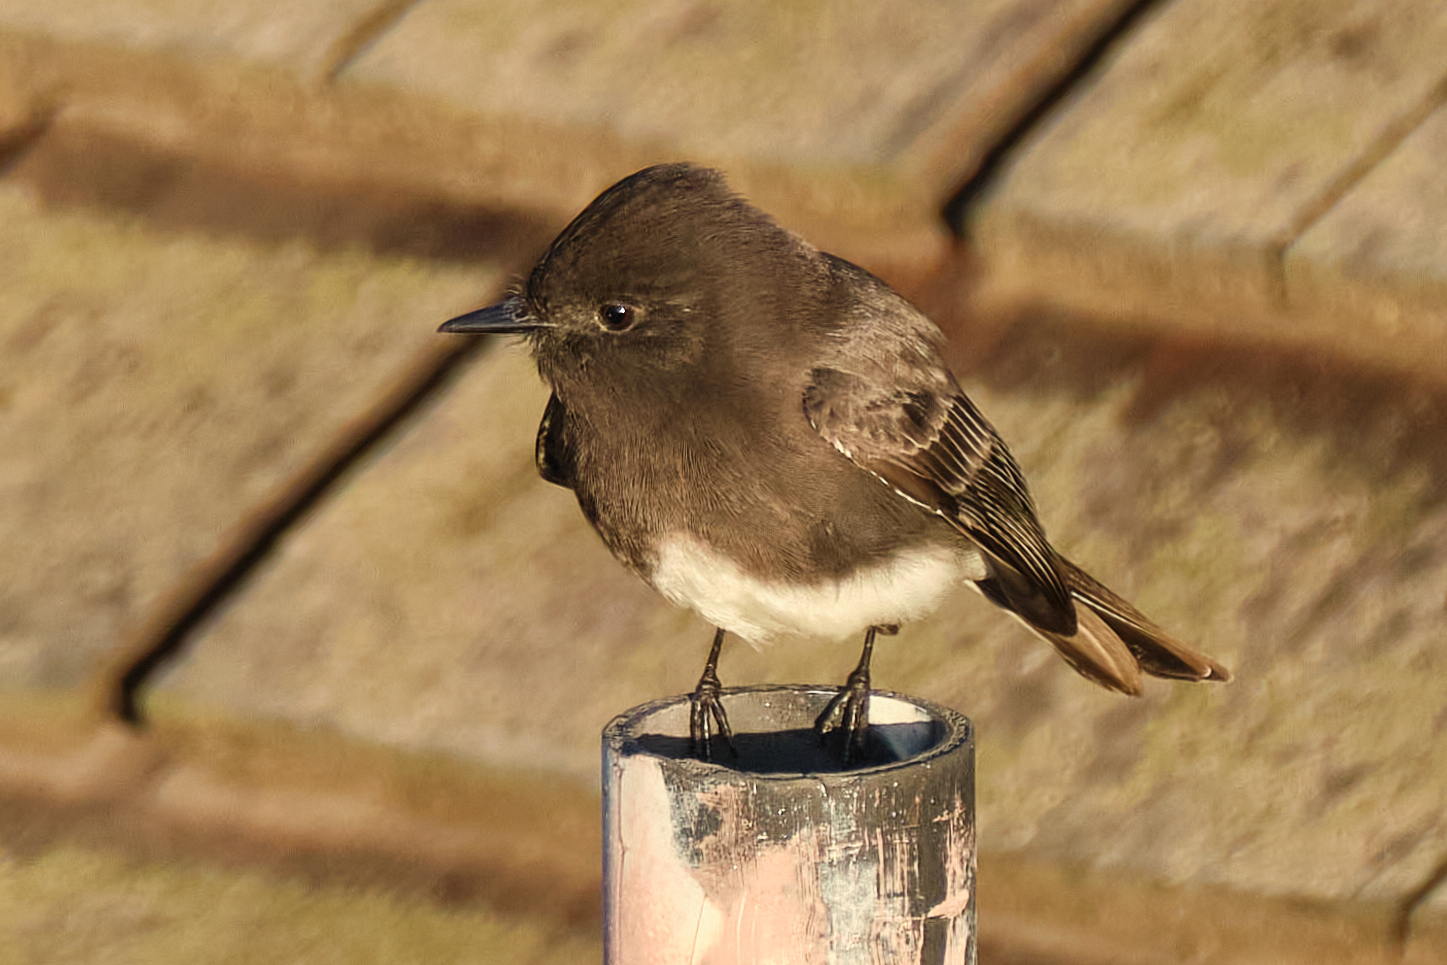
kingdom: Animalia
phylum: Chordata
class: Aves
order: Passeriformes
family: Tyrannidae
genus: Sayornis
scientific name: Sayornis nigricans
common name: Black phoebe
